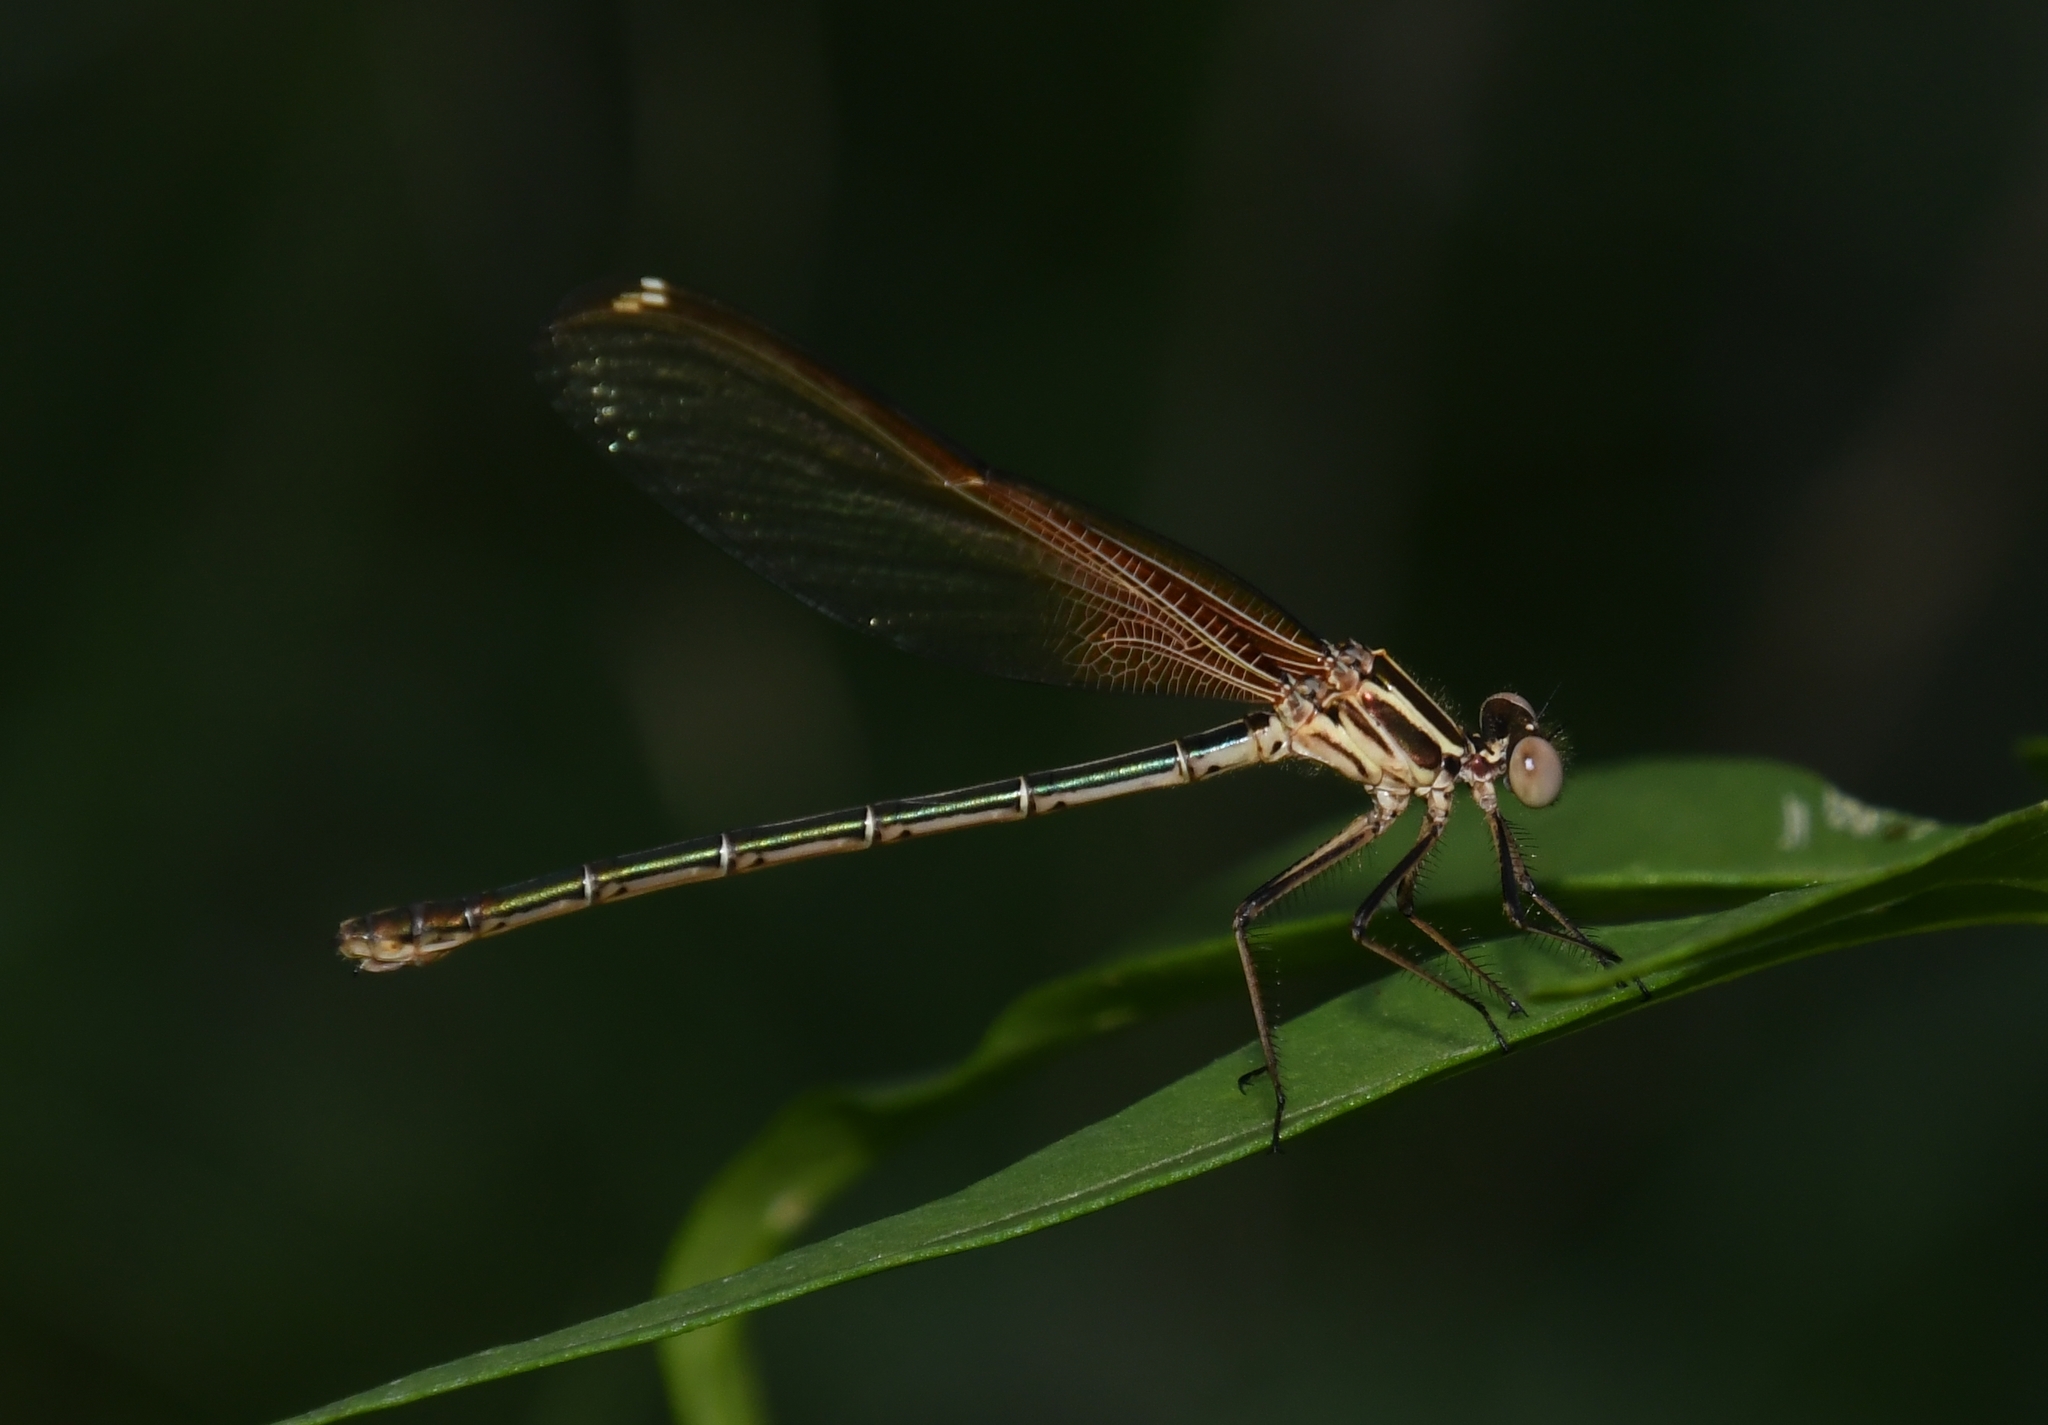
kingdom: Animalia
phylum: Arthropoda
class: Insecta
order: Odonata
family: Calopterygidae
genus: Hetaerina
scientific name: Hetaerina americana
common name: American rubyspot
